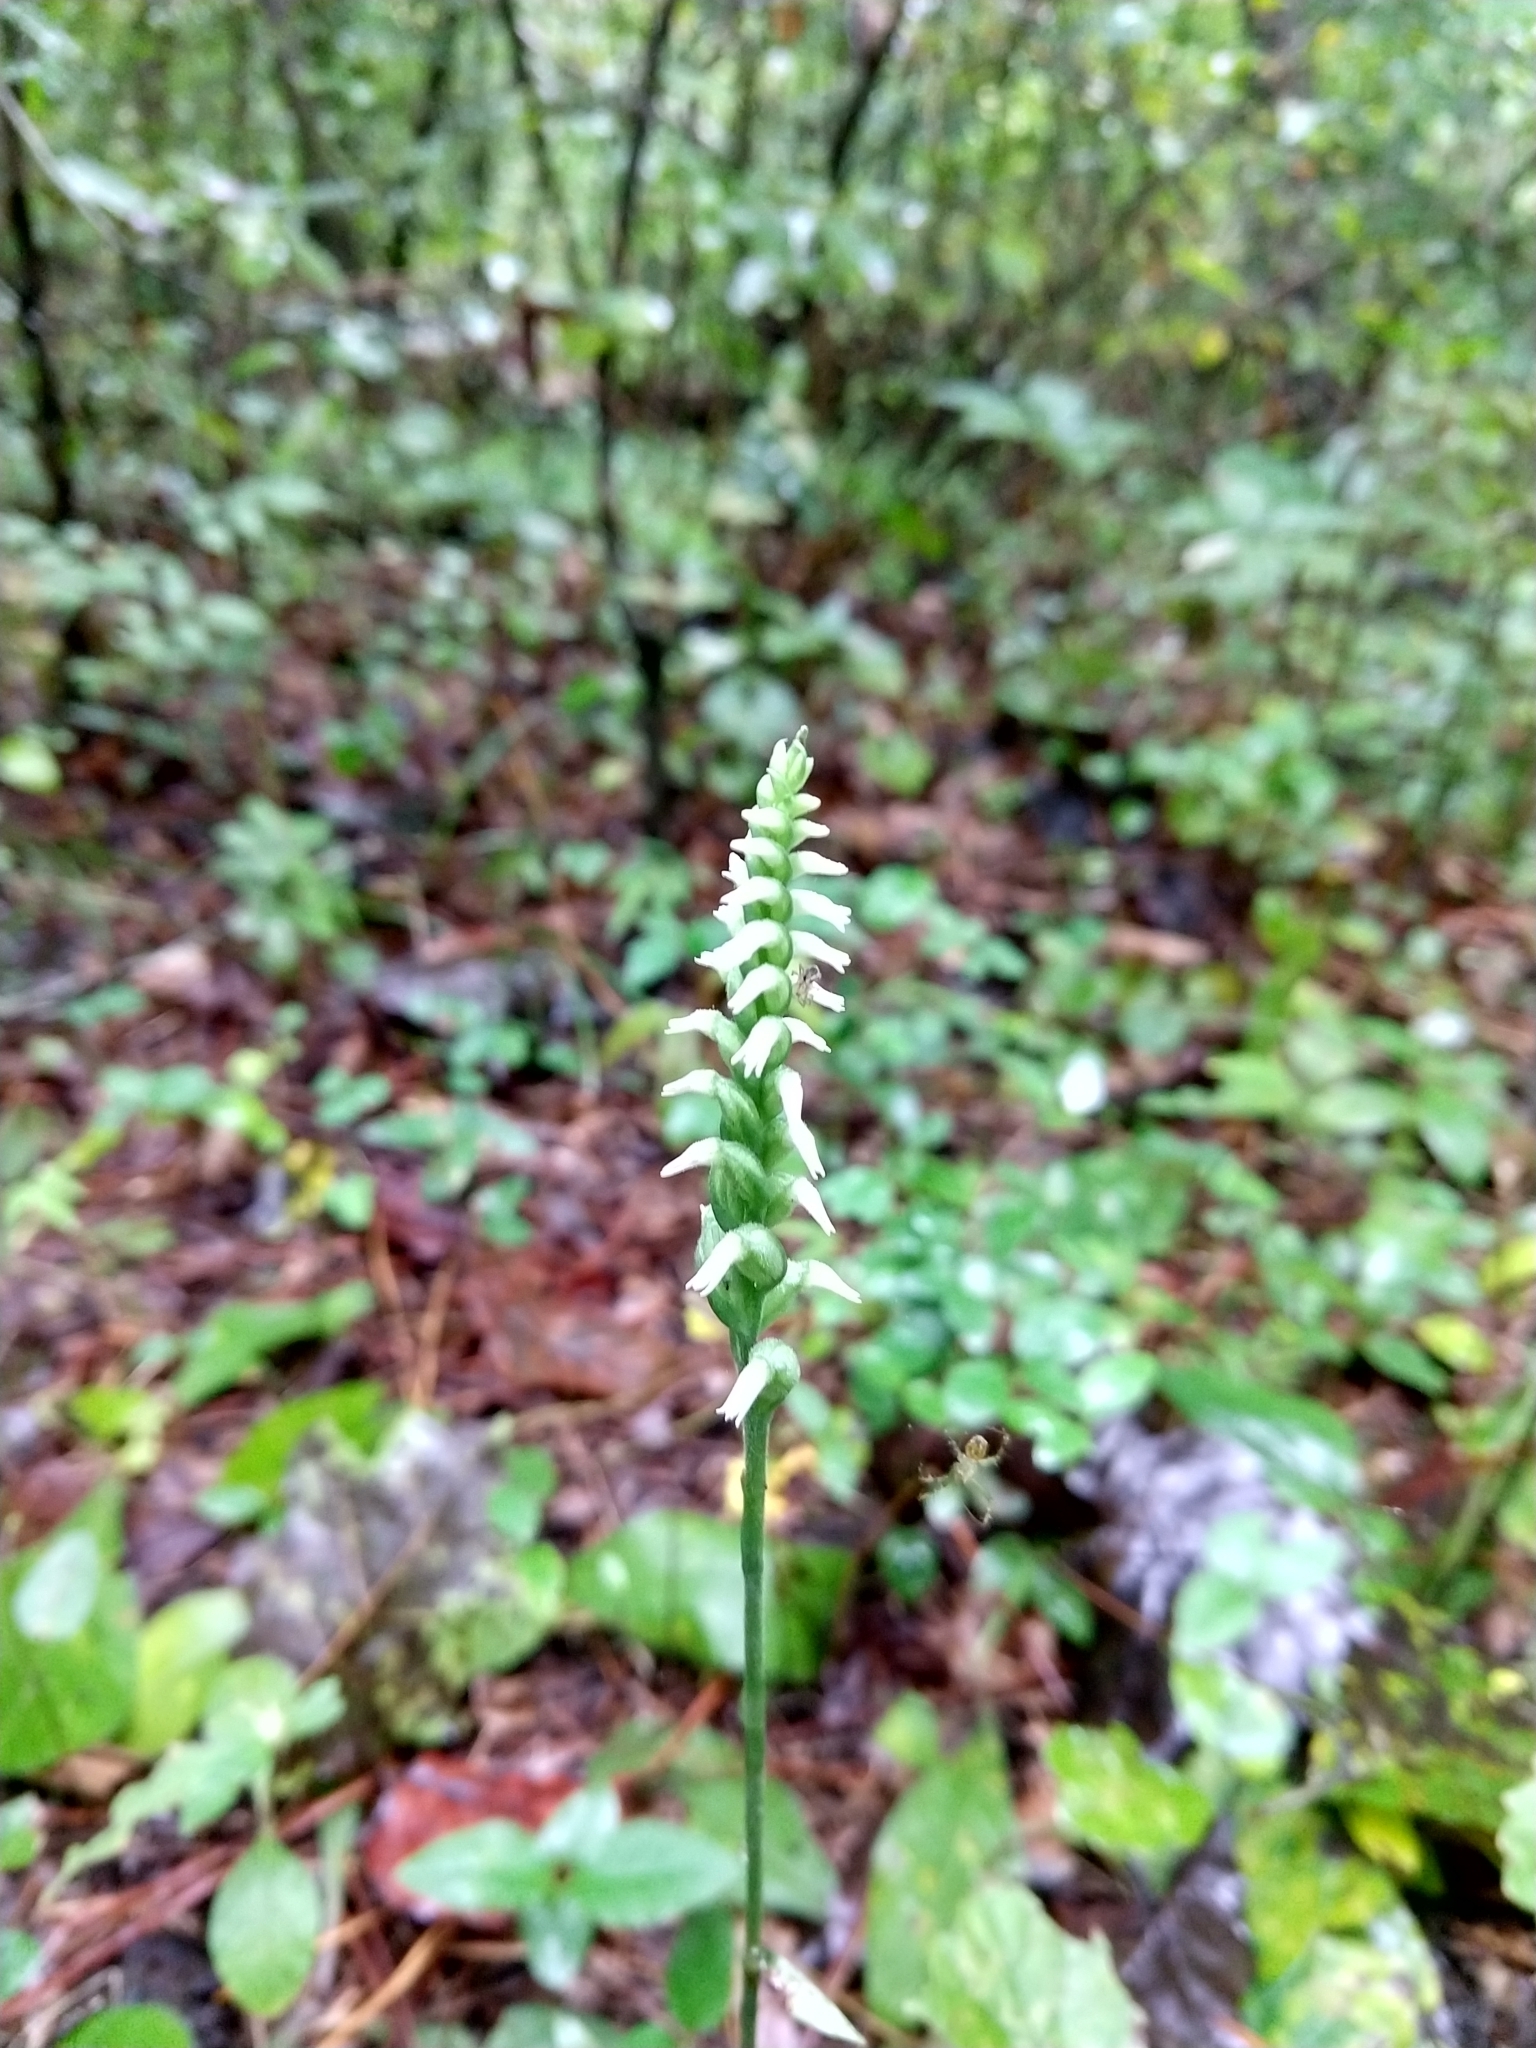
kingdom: Plantae
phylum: Tracheophyta
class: Liliopsida
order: Asparagales
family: Orchidaceae
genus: Spiranthes
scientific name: Spiranthes ovalis
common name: October ladies'-tresses
